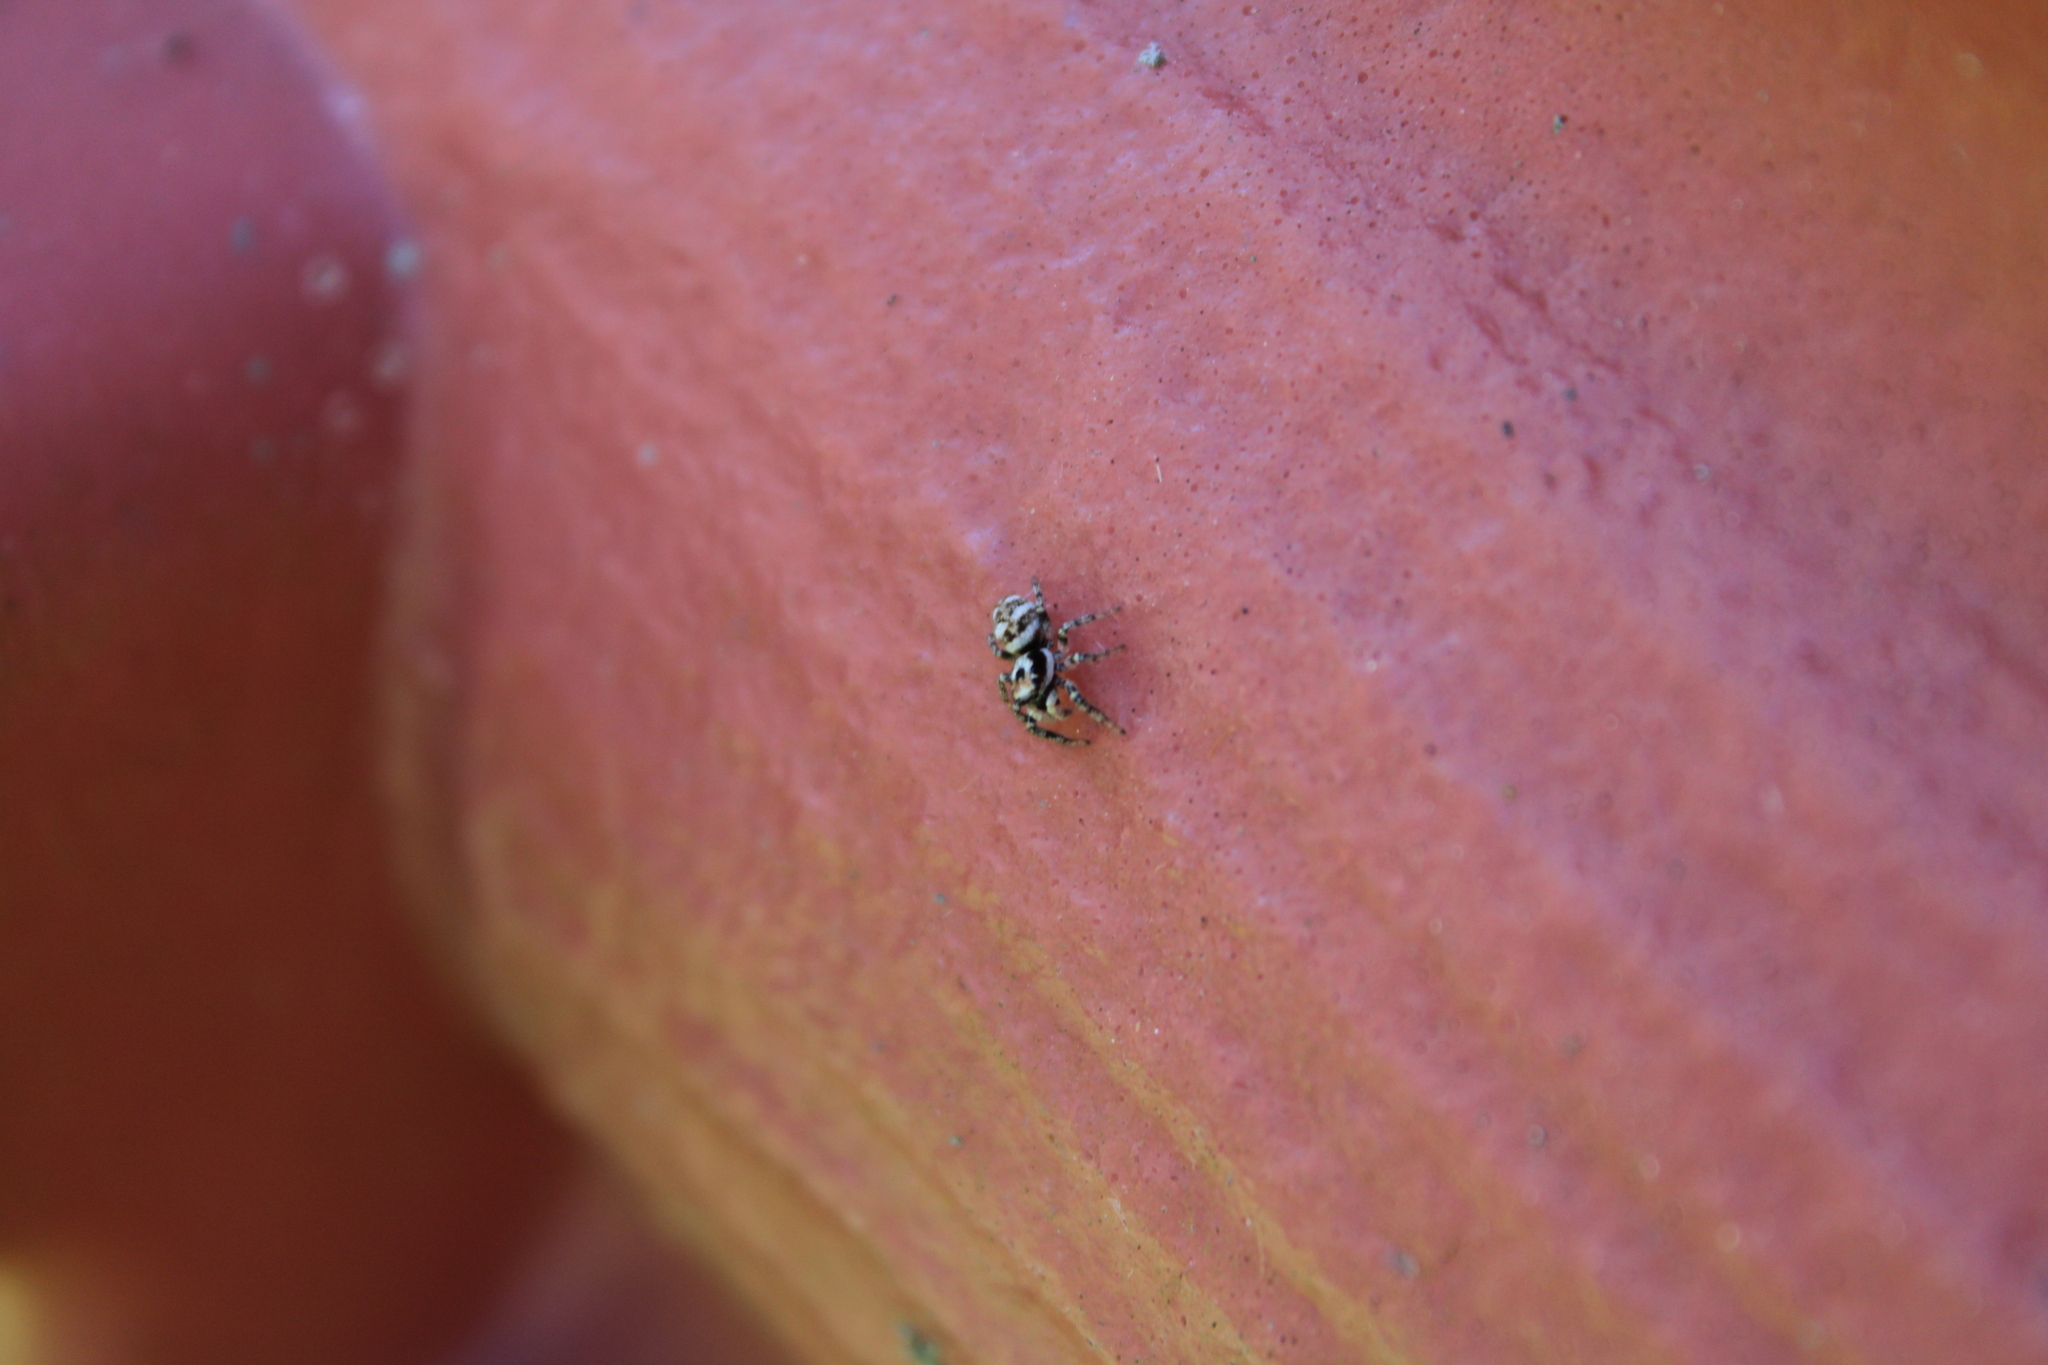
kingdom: Animalia
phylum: Arthropoda
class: Arachnida
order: Araneae
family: Salticidae
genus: Salticus
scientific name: Salticus scenicus
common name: Zebra jumper
